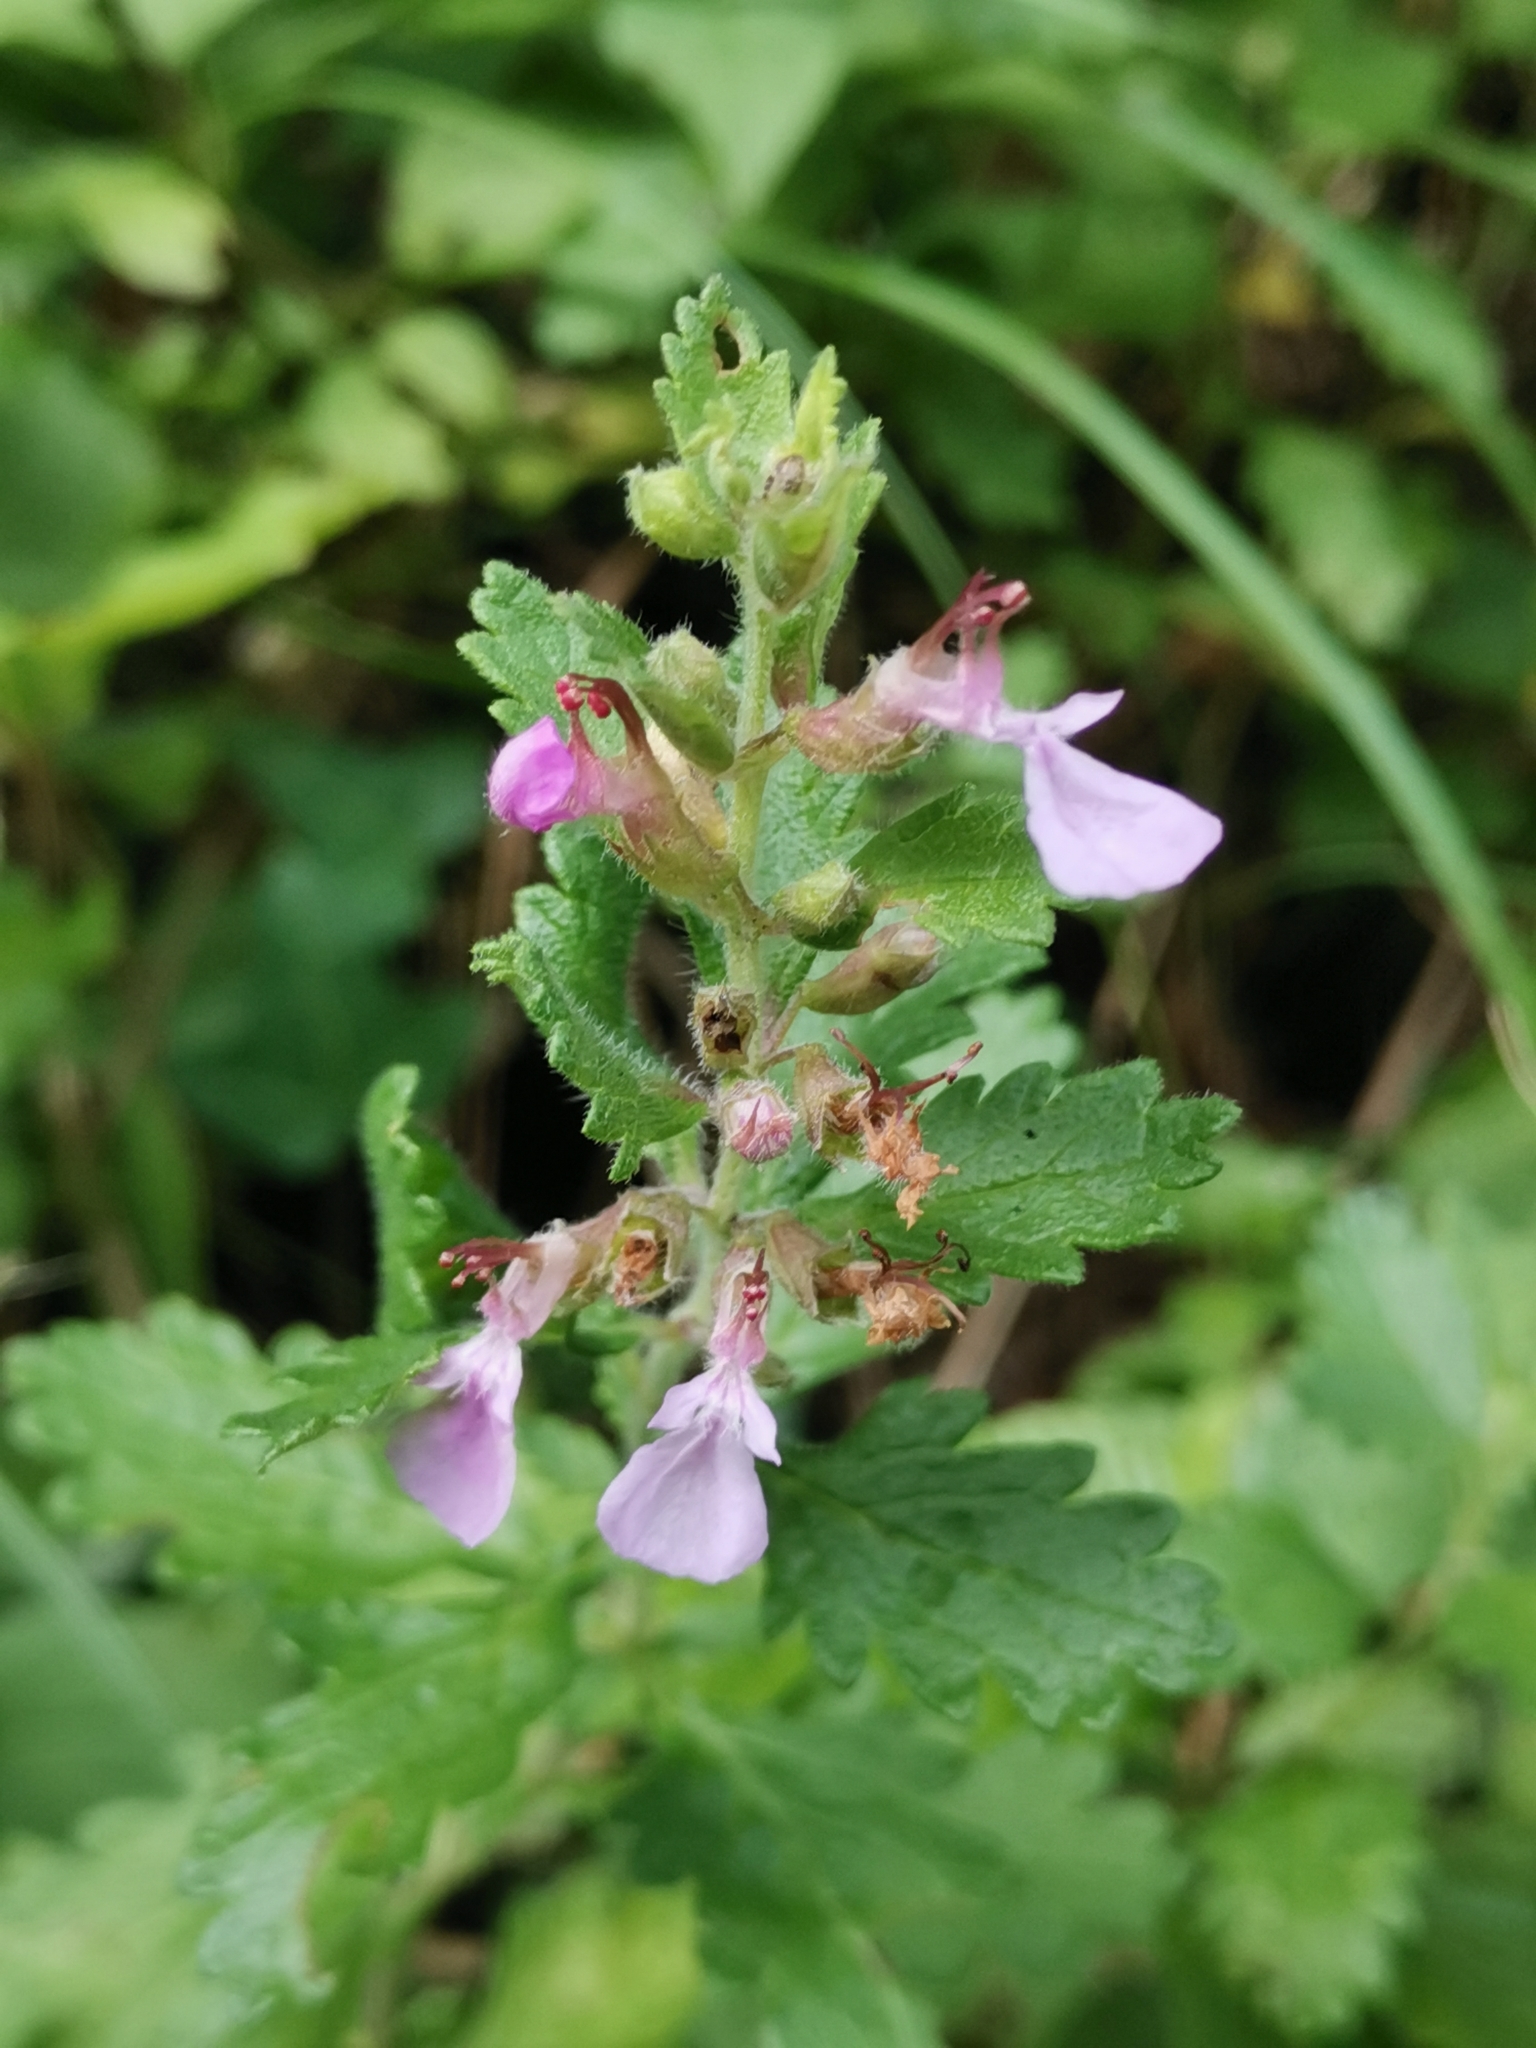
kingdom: Plantae
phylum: Tracheophyta
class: Magnoliopsida
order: Lamiales
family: Lamiaceae
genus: Teucrium
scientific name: Teucrium chamaedrys
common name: Wall germander
